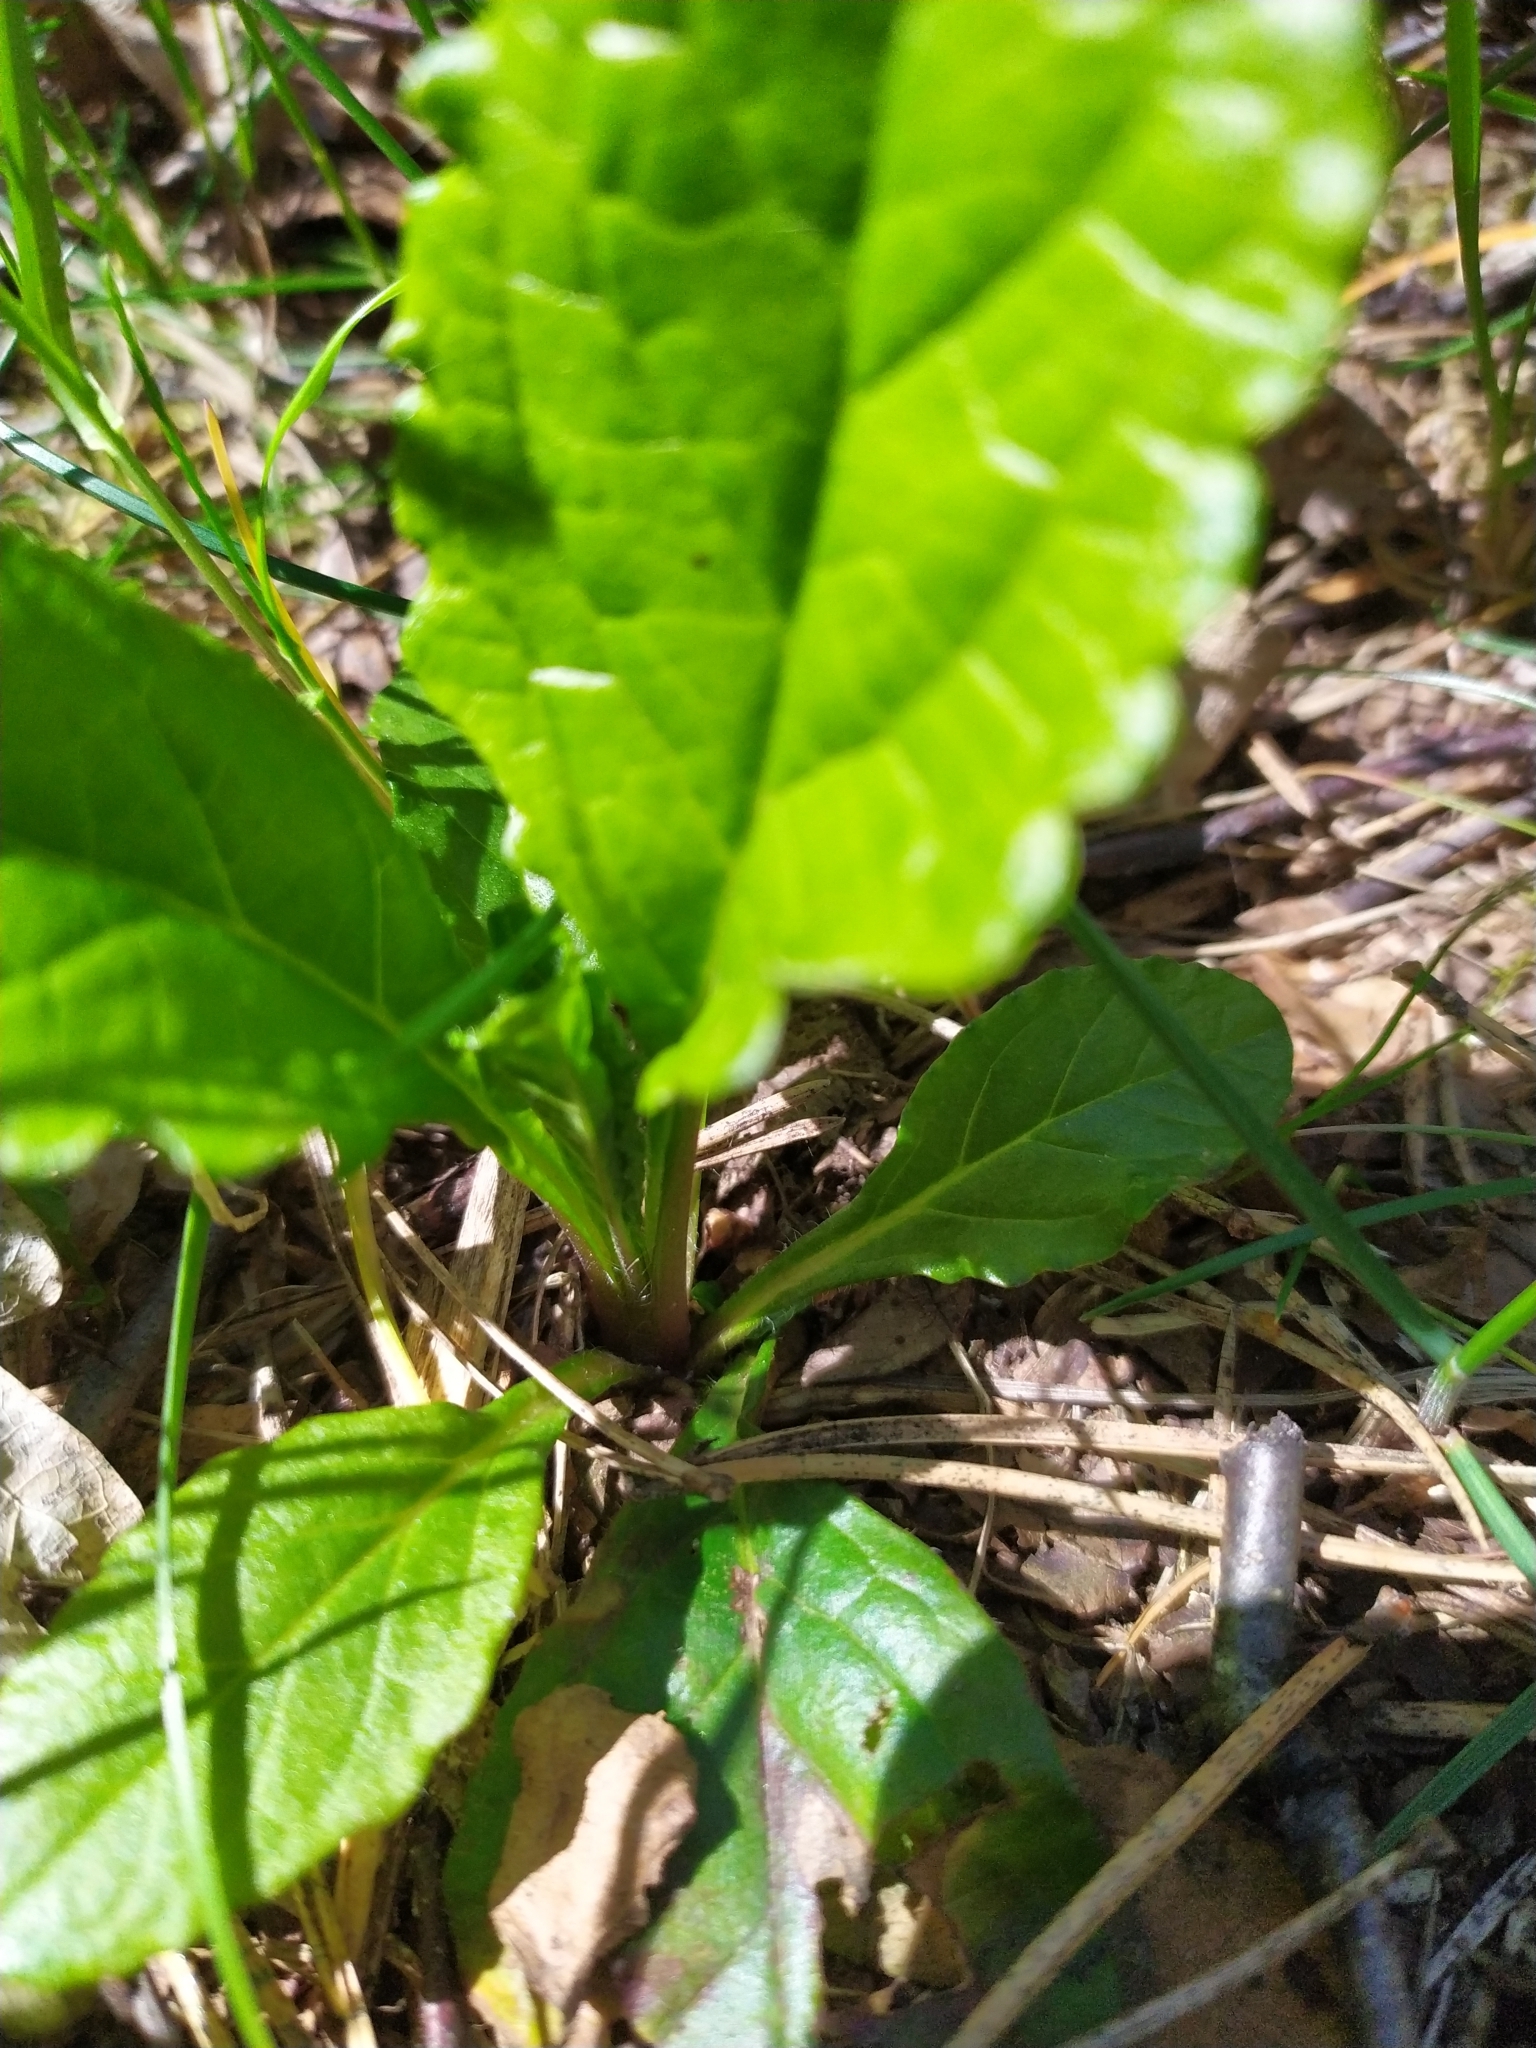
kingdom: Plantae
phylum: Tracheophyta
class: Magnoliopsida
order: Lamiales
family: Lamiaceae
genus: Ajuga
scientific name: Ajuga reptans
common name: Bugle
